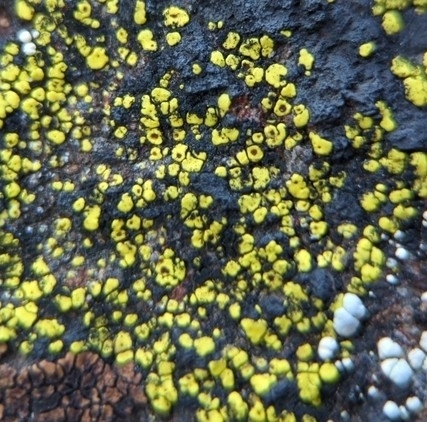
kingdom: Fungi
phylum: Ascomycota
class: Lecanoromycetes
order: Rhizocarpales
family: Rhizocarpaceae
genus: Rhizocarpon
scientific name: Rhizocarpon lecanorinum
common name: Crescent map lichen
